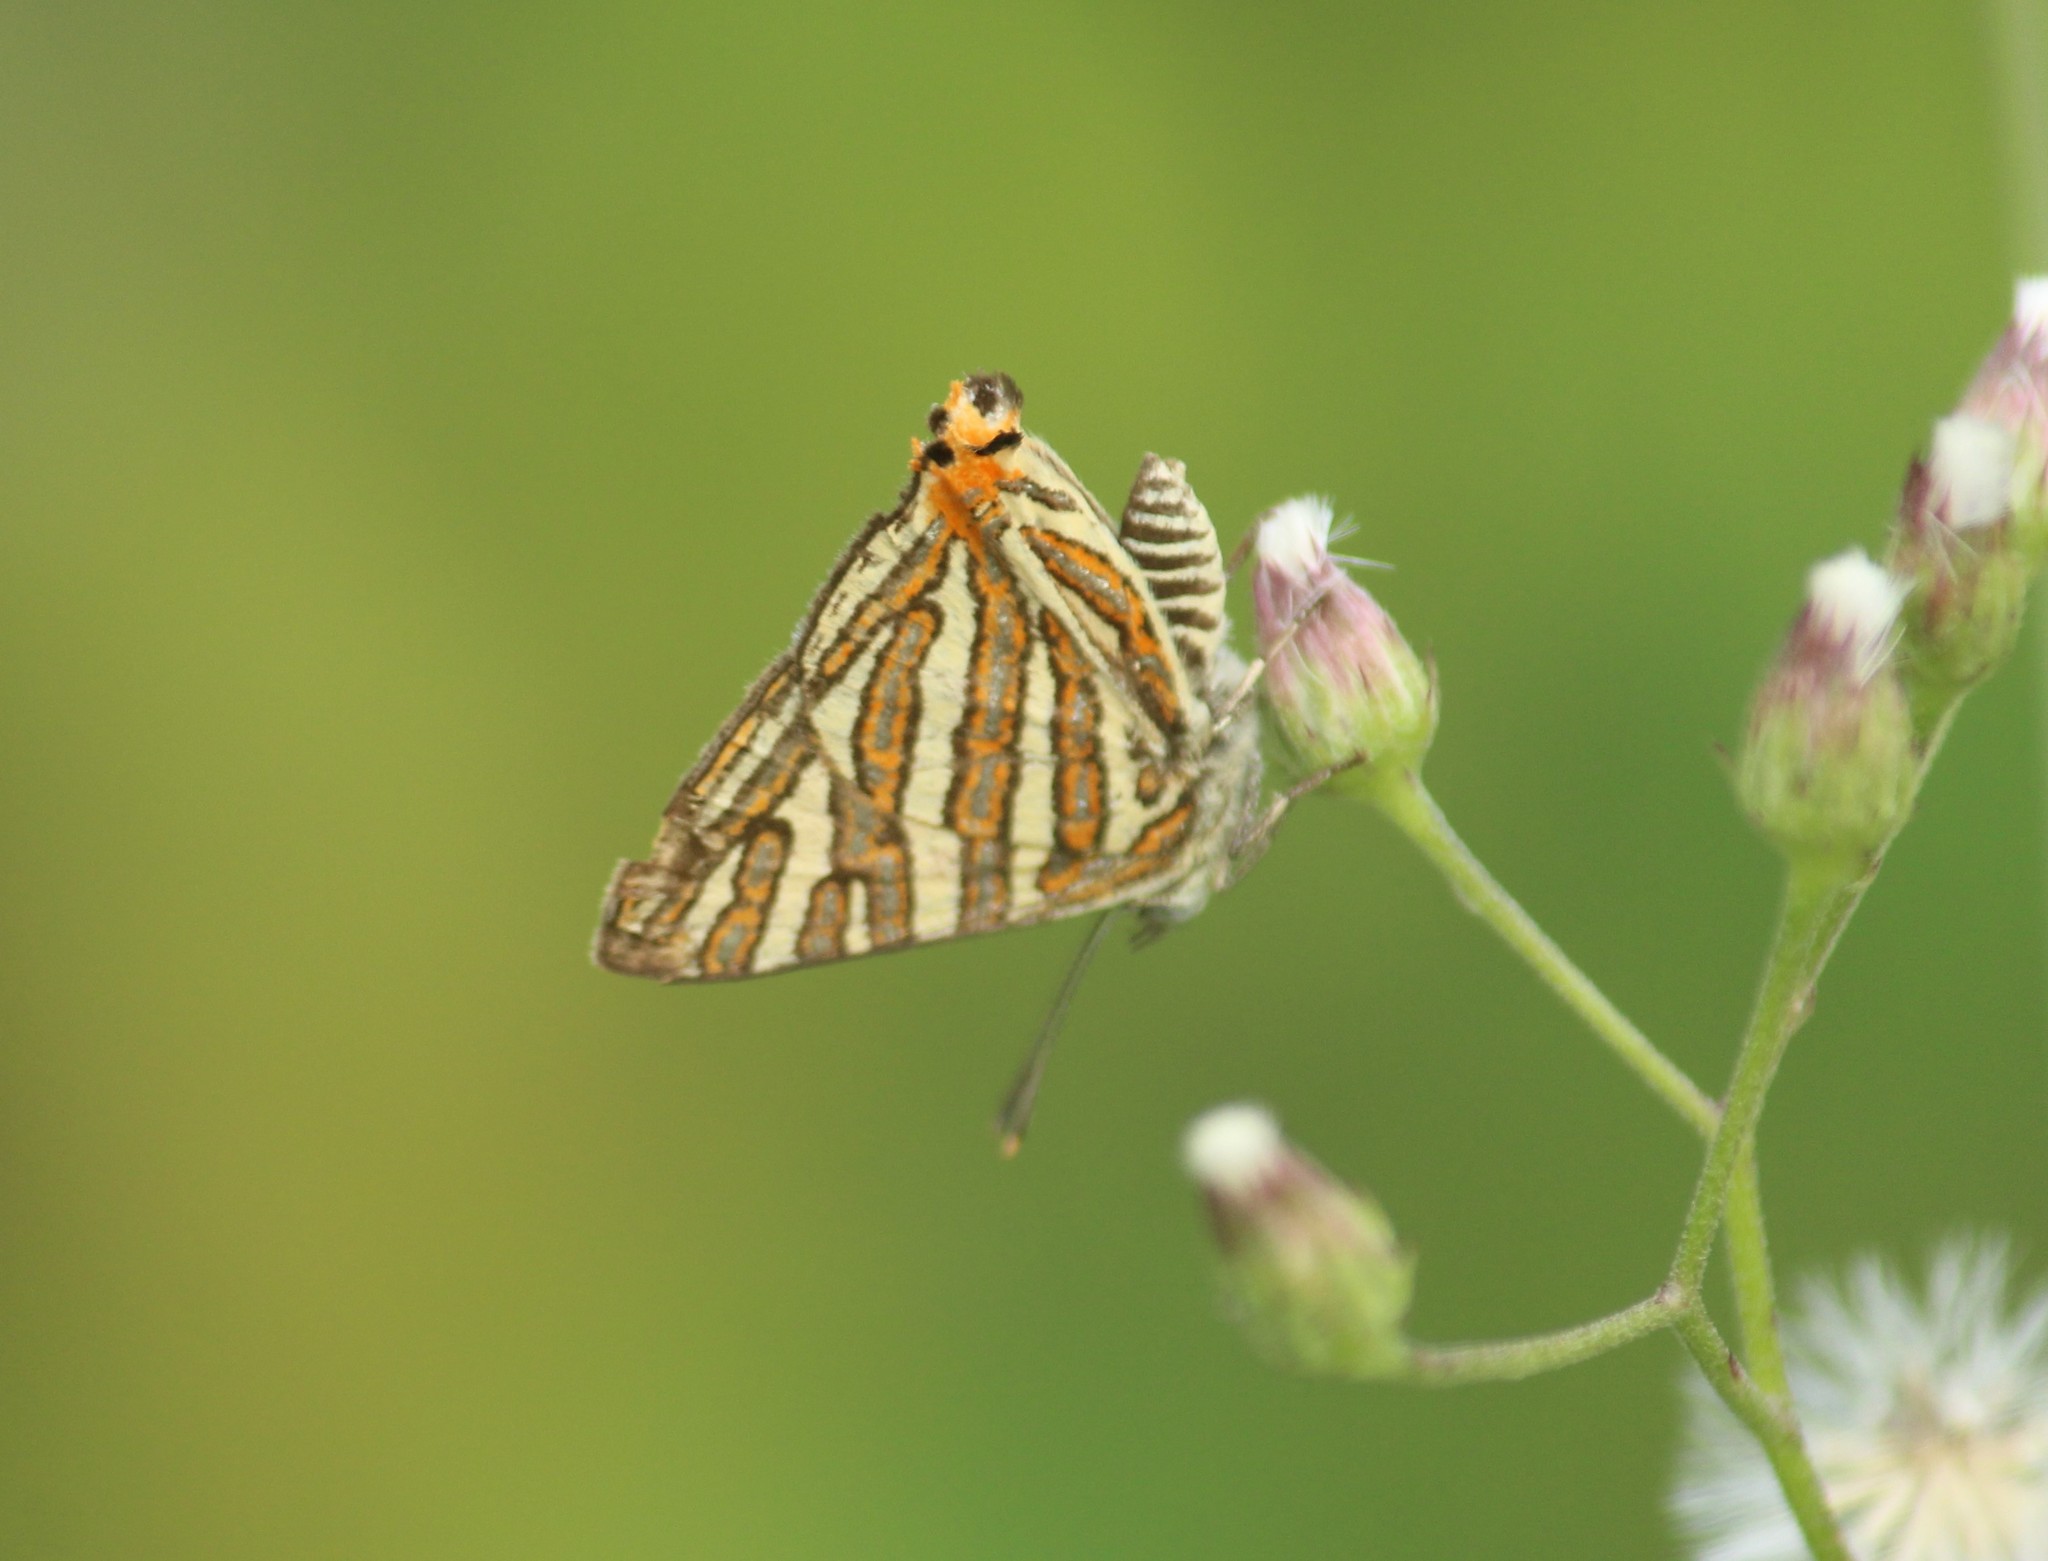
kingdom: Animalia
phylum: Arthropoda
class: Insecta
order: Lepidoptera
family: Lycaenidae
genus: Cigaritis
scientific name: Cigaritis vulcanus
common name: Common silverline
